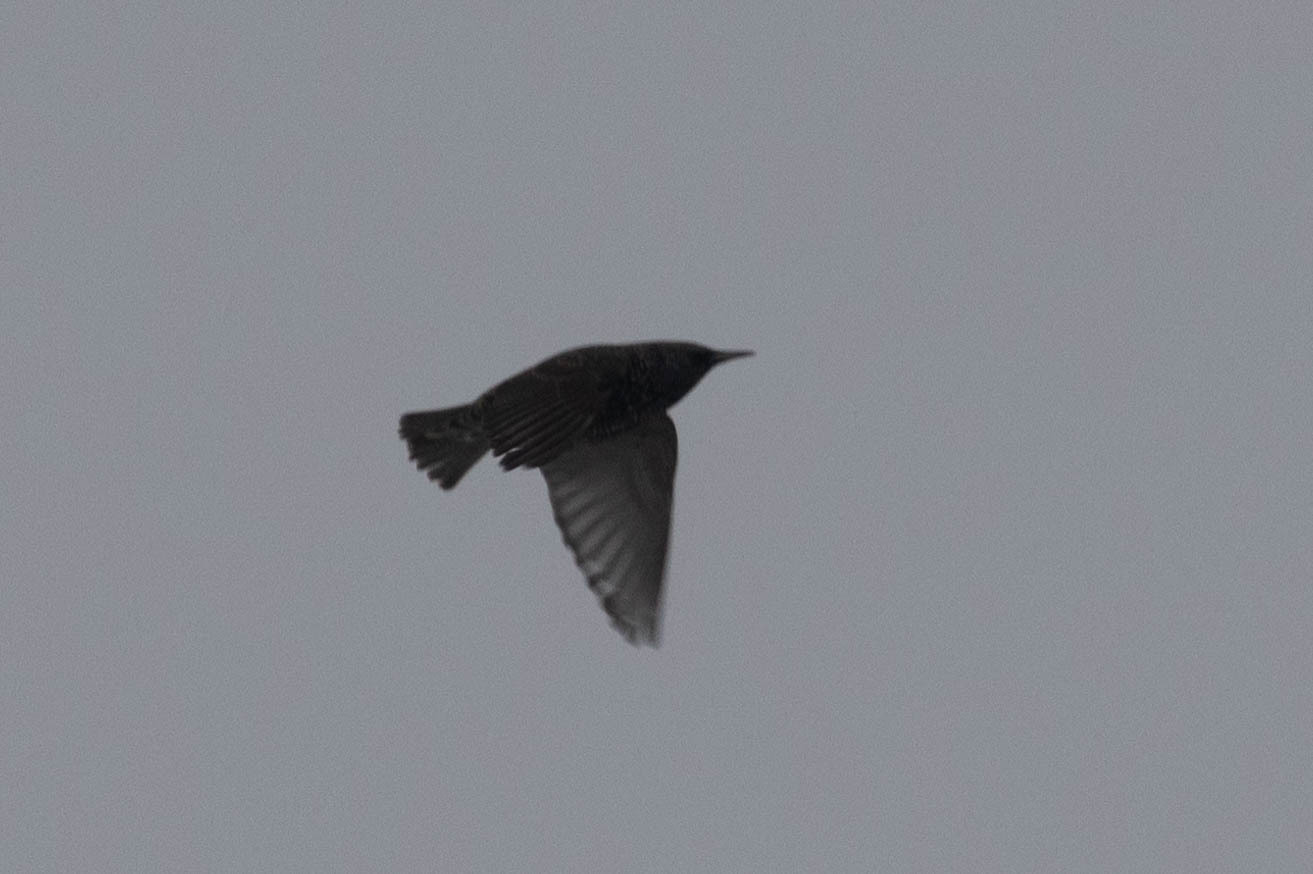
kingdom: Animalia
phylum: Chordata
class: Aves
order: Passeriformes
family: Sturnidae
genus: Sturnus
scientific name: Sturnus vulgaris
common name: Common starling
